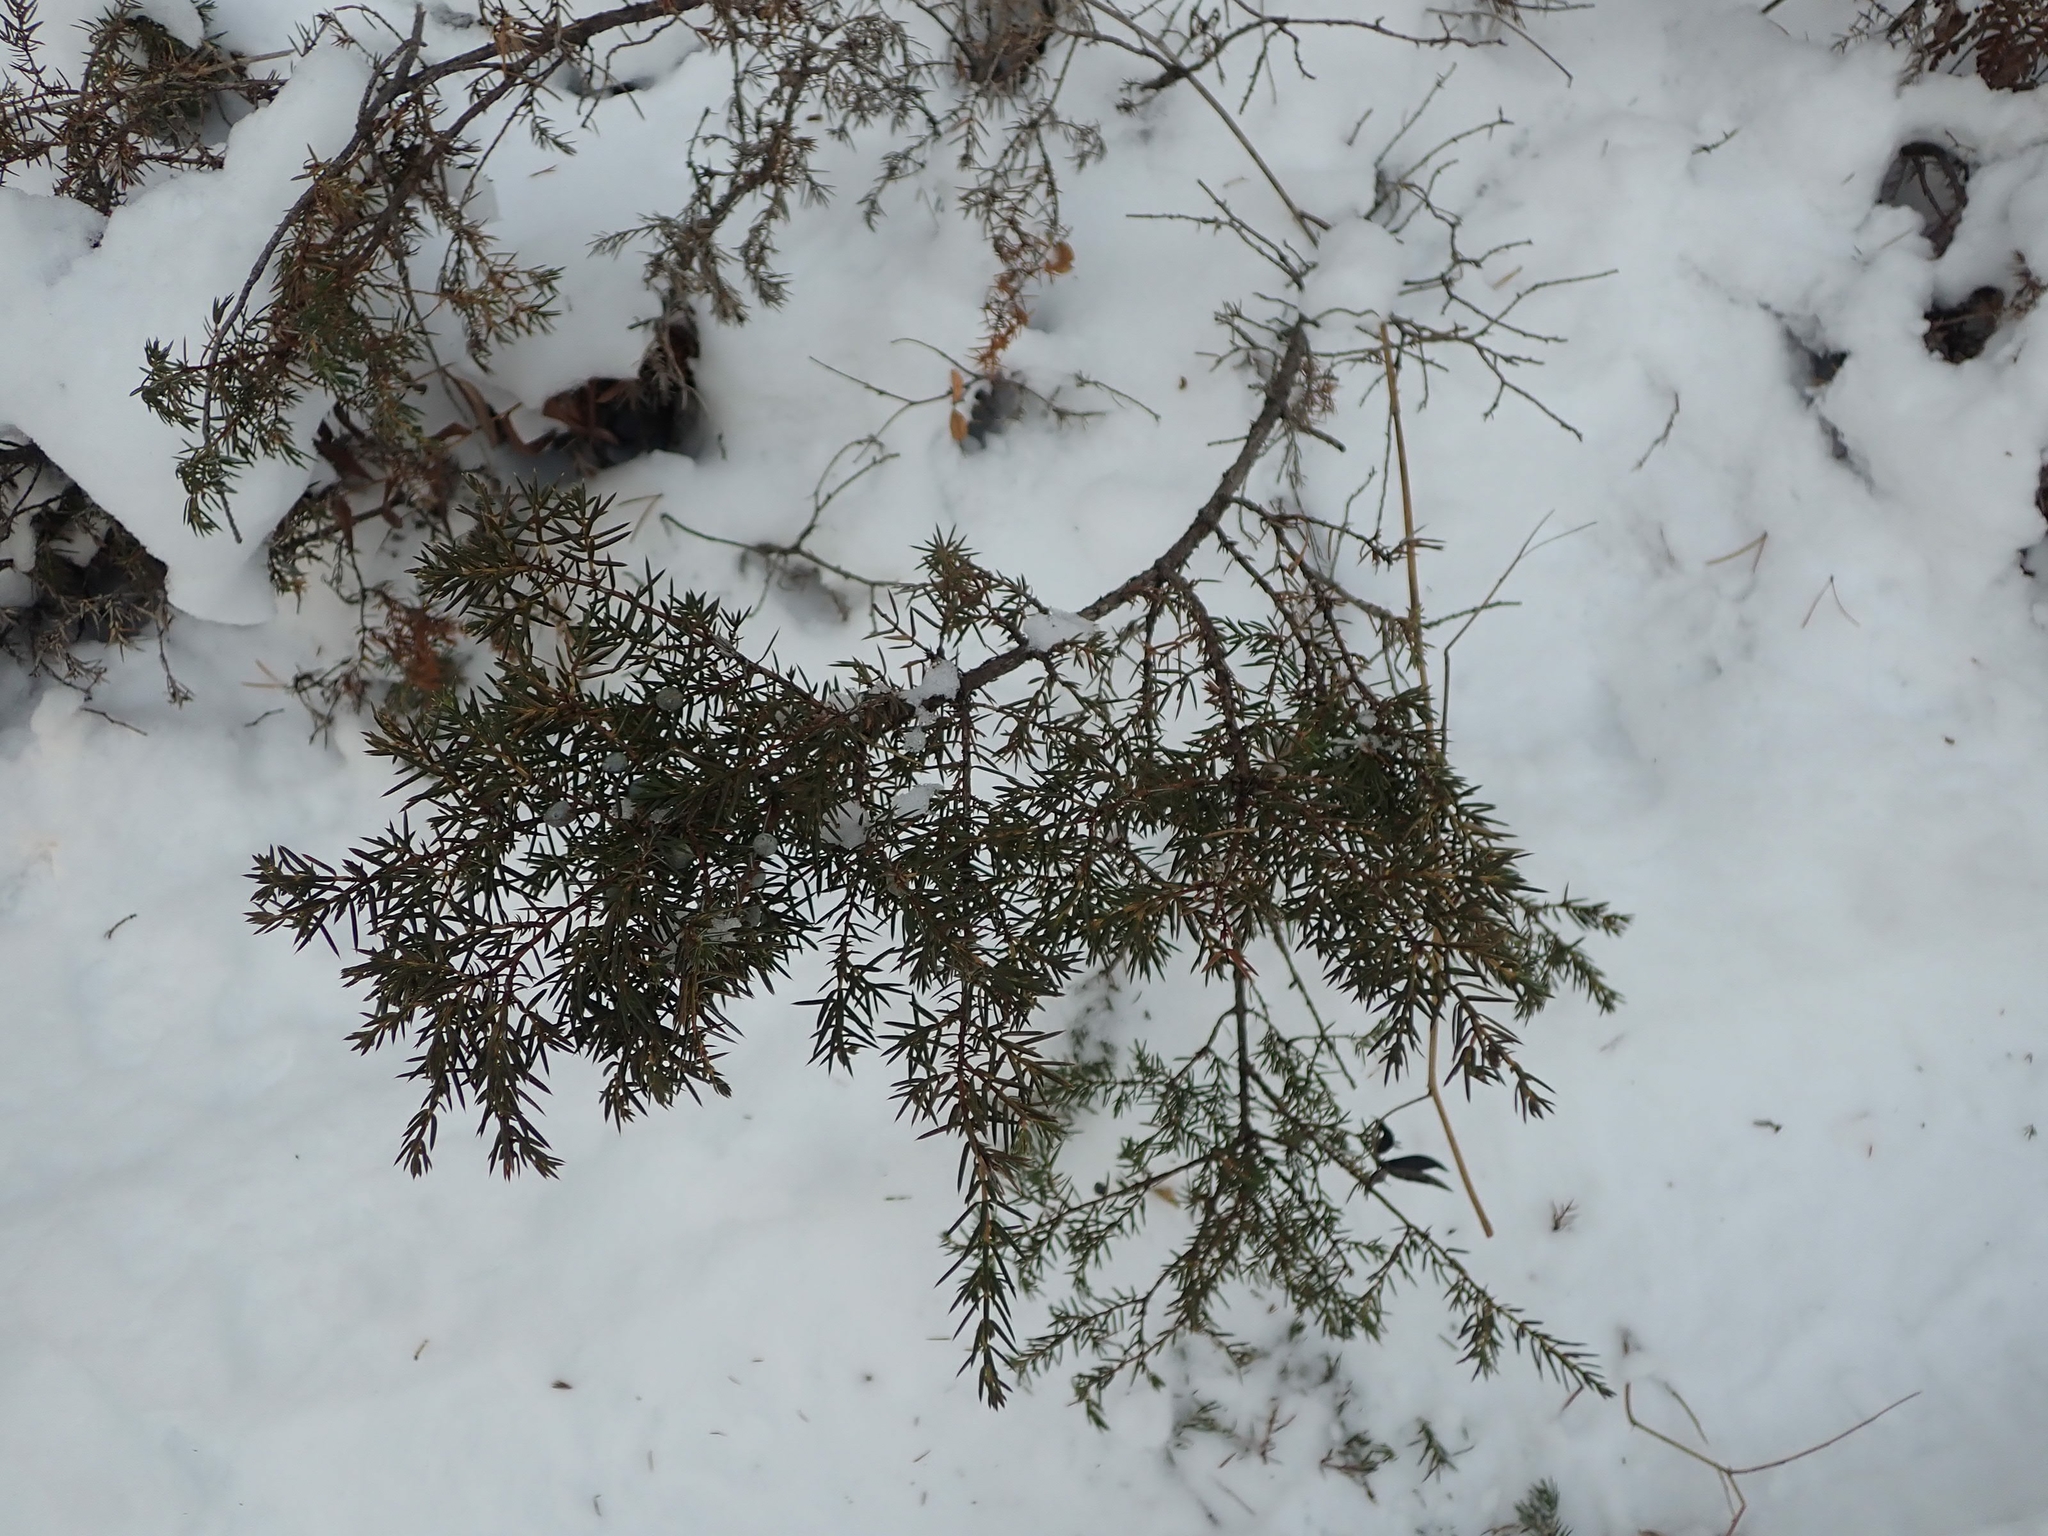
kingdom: Plantae
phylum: Tracheophyta
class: Pinopsida
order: Pinales
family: Cupressaceae
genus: Juniperus
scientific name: Juniperus communis
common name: Common juniper
